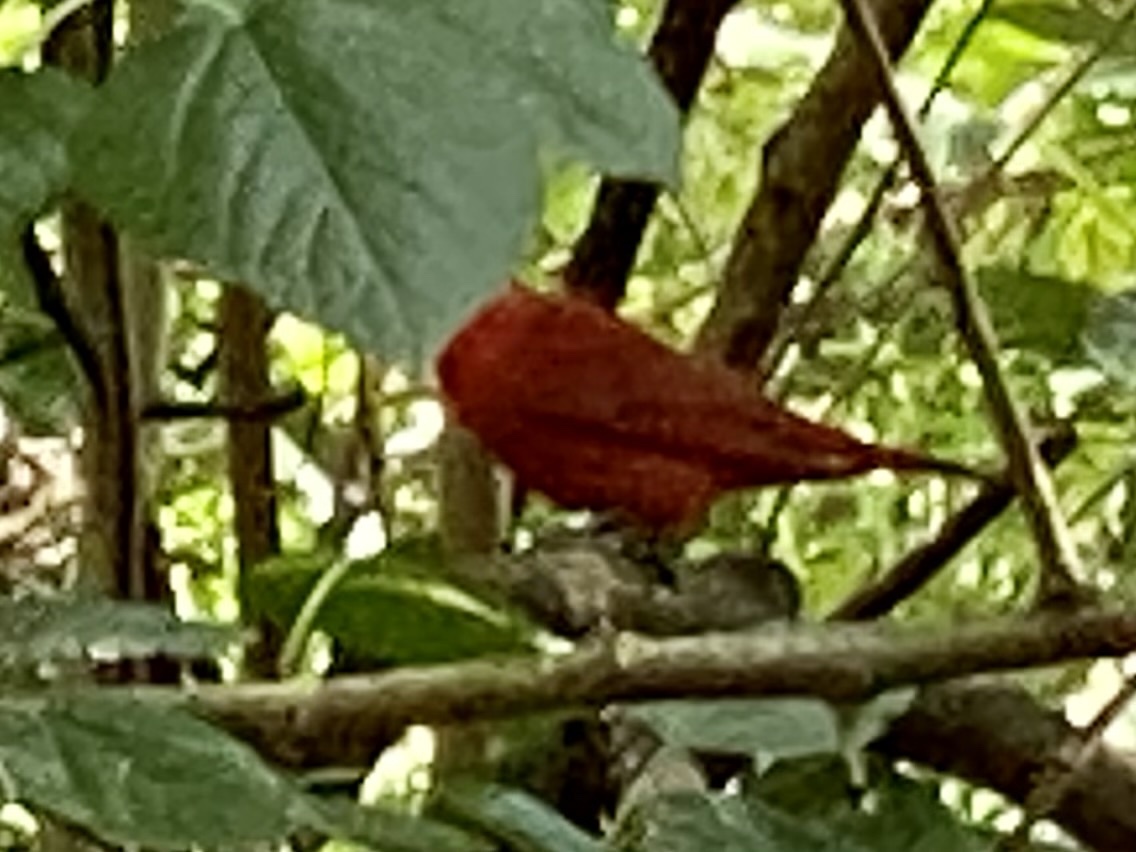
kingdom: Animalia
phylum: Chordata
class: Aves
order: Passeriformes
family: Cardinalidae
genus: Piranga
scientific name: Piranga rubra
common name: Summer tanager
